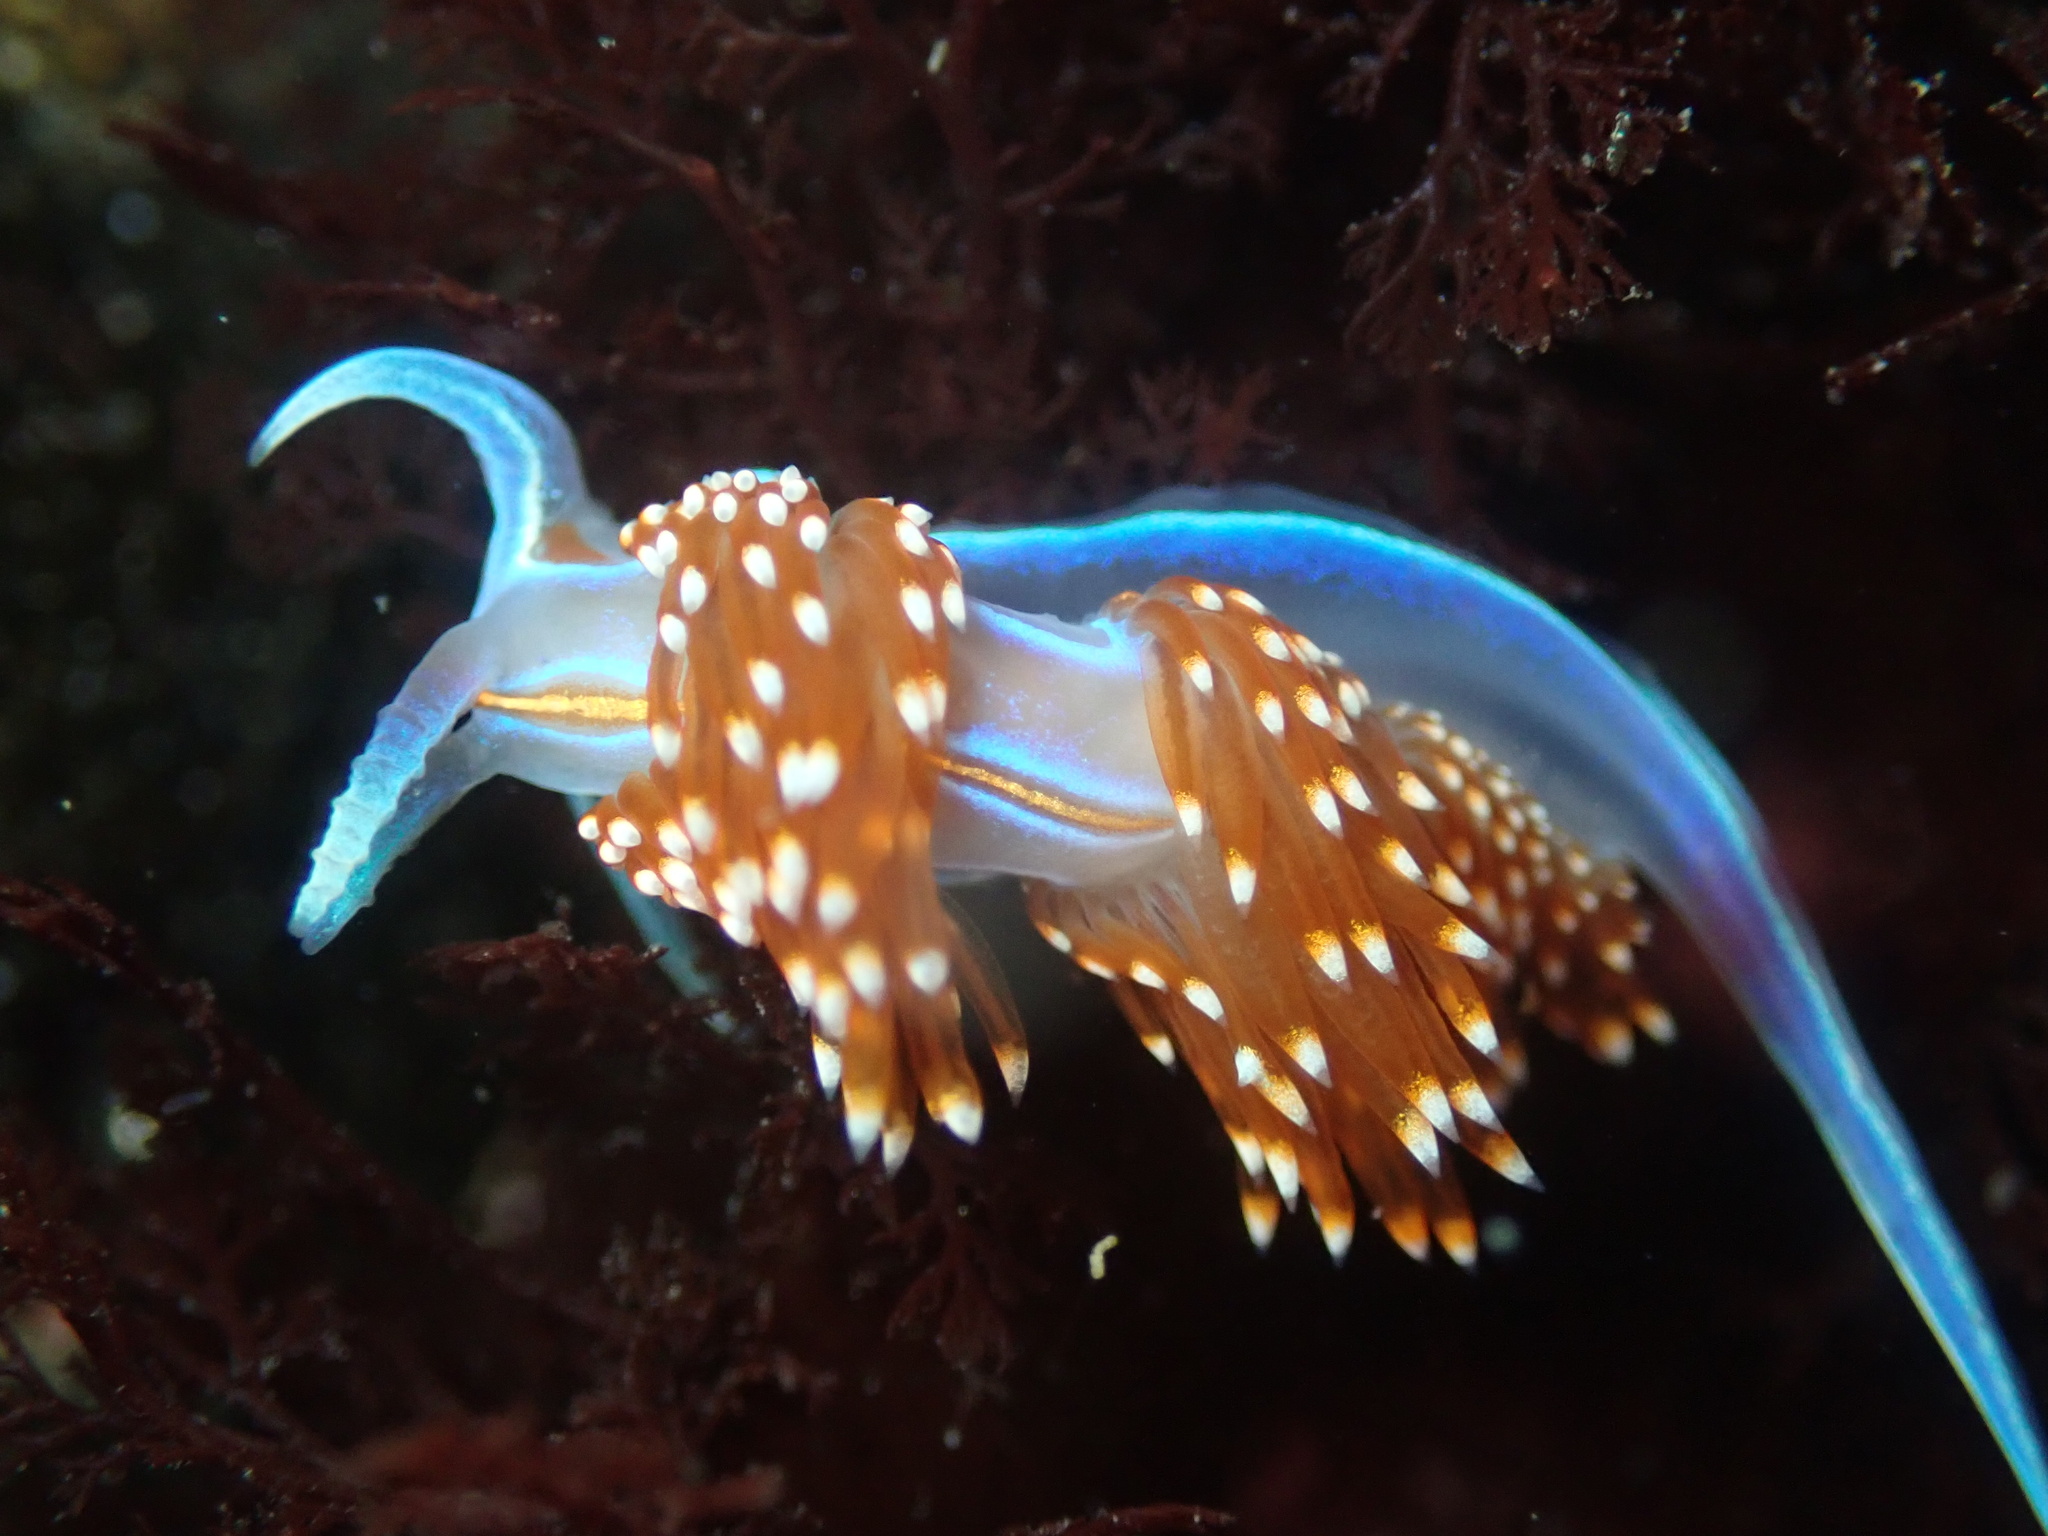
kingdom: Animalia
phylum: Mollusca
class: Gastropoda
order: Nudibranchia
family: Myrrhinidae
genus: Hermissenda
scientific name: Hermissenda opalescens
